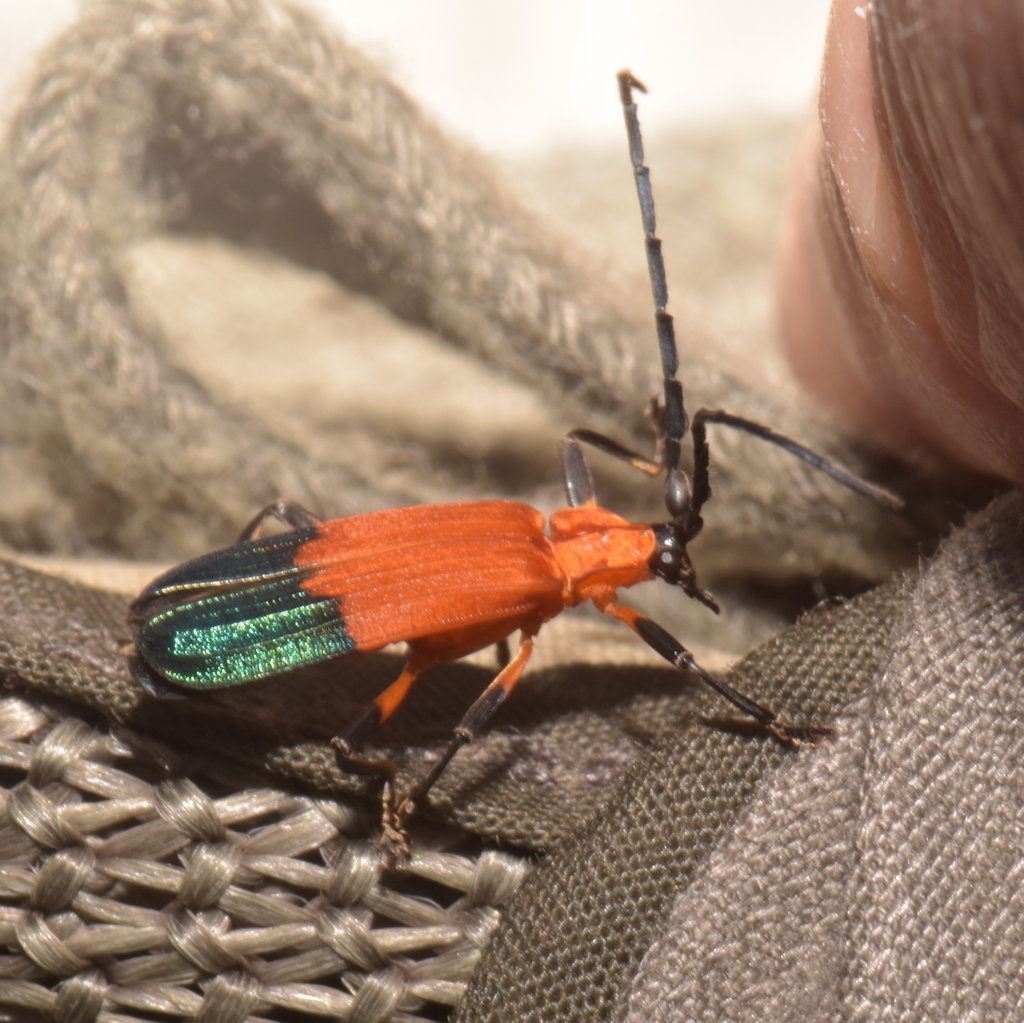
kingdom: Animalia
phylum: Arthropoda
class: Insecta
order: Coleoptera
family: Lycidae
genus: Thonalmus
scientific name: Thonalmus
